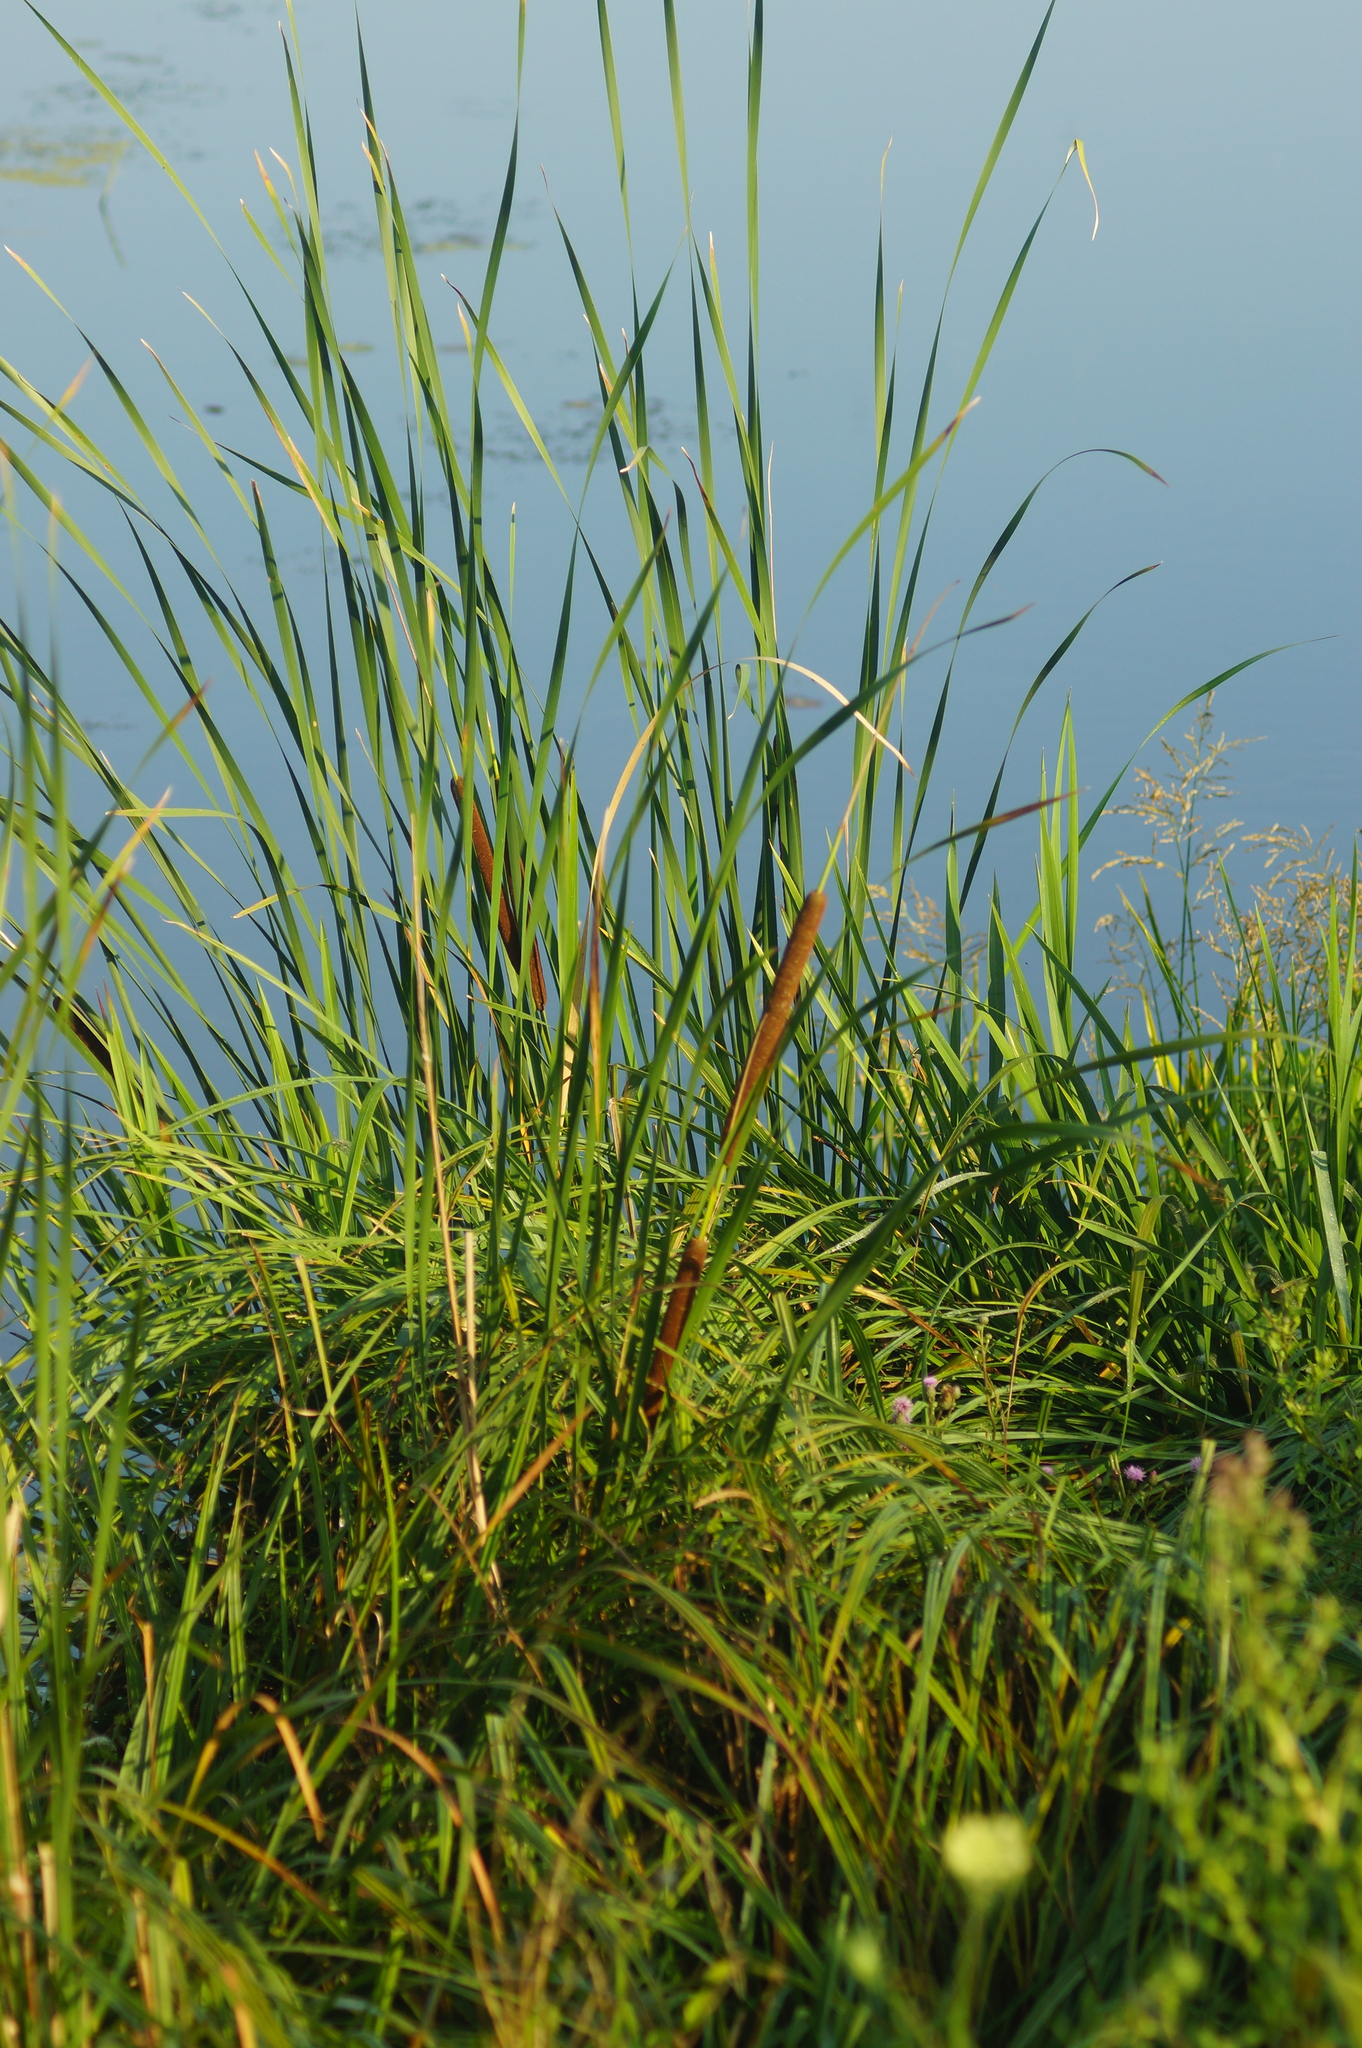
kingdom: Plantae
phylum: Tracheophyta
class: Liliopsida
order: Poales
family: Typhaceae
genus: Typha
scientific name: Typha angustifolia
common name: Lesser bulrush
